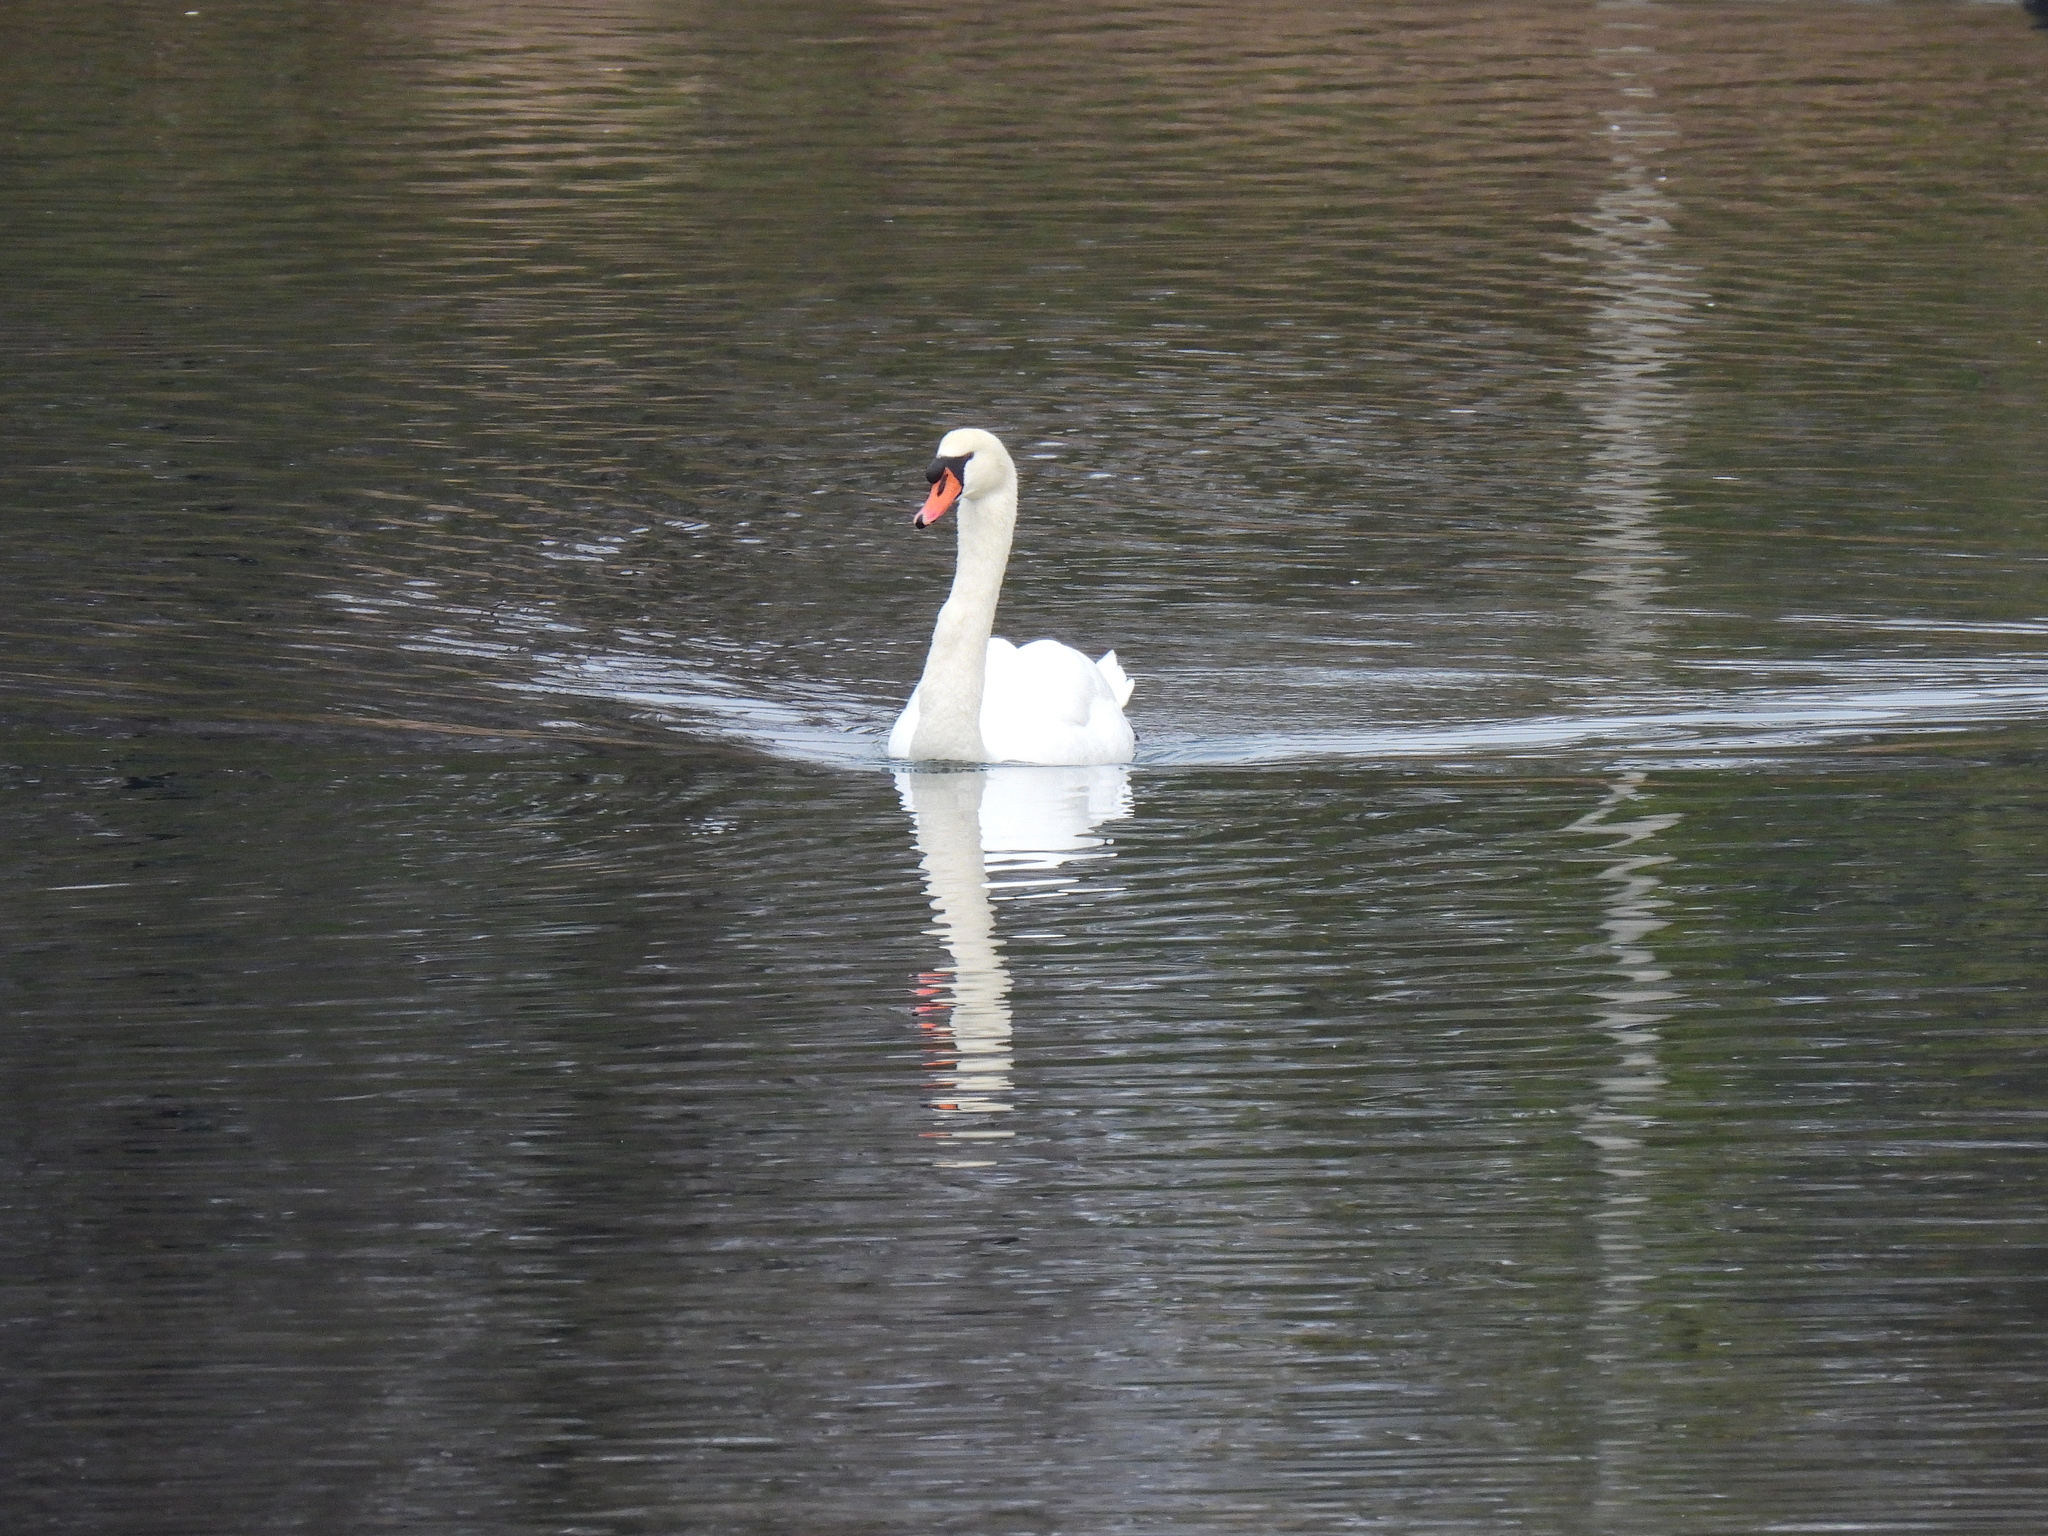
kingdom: Animalia
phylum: Chordata
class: Aves
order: Anseriformes
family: Anatidae
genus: Cygnus
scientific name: Cygnus olor
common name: Mute swan
